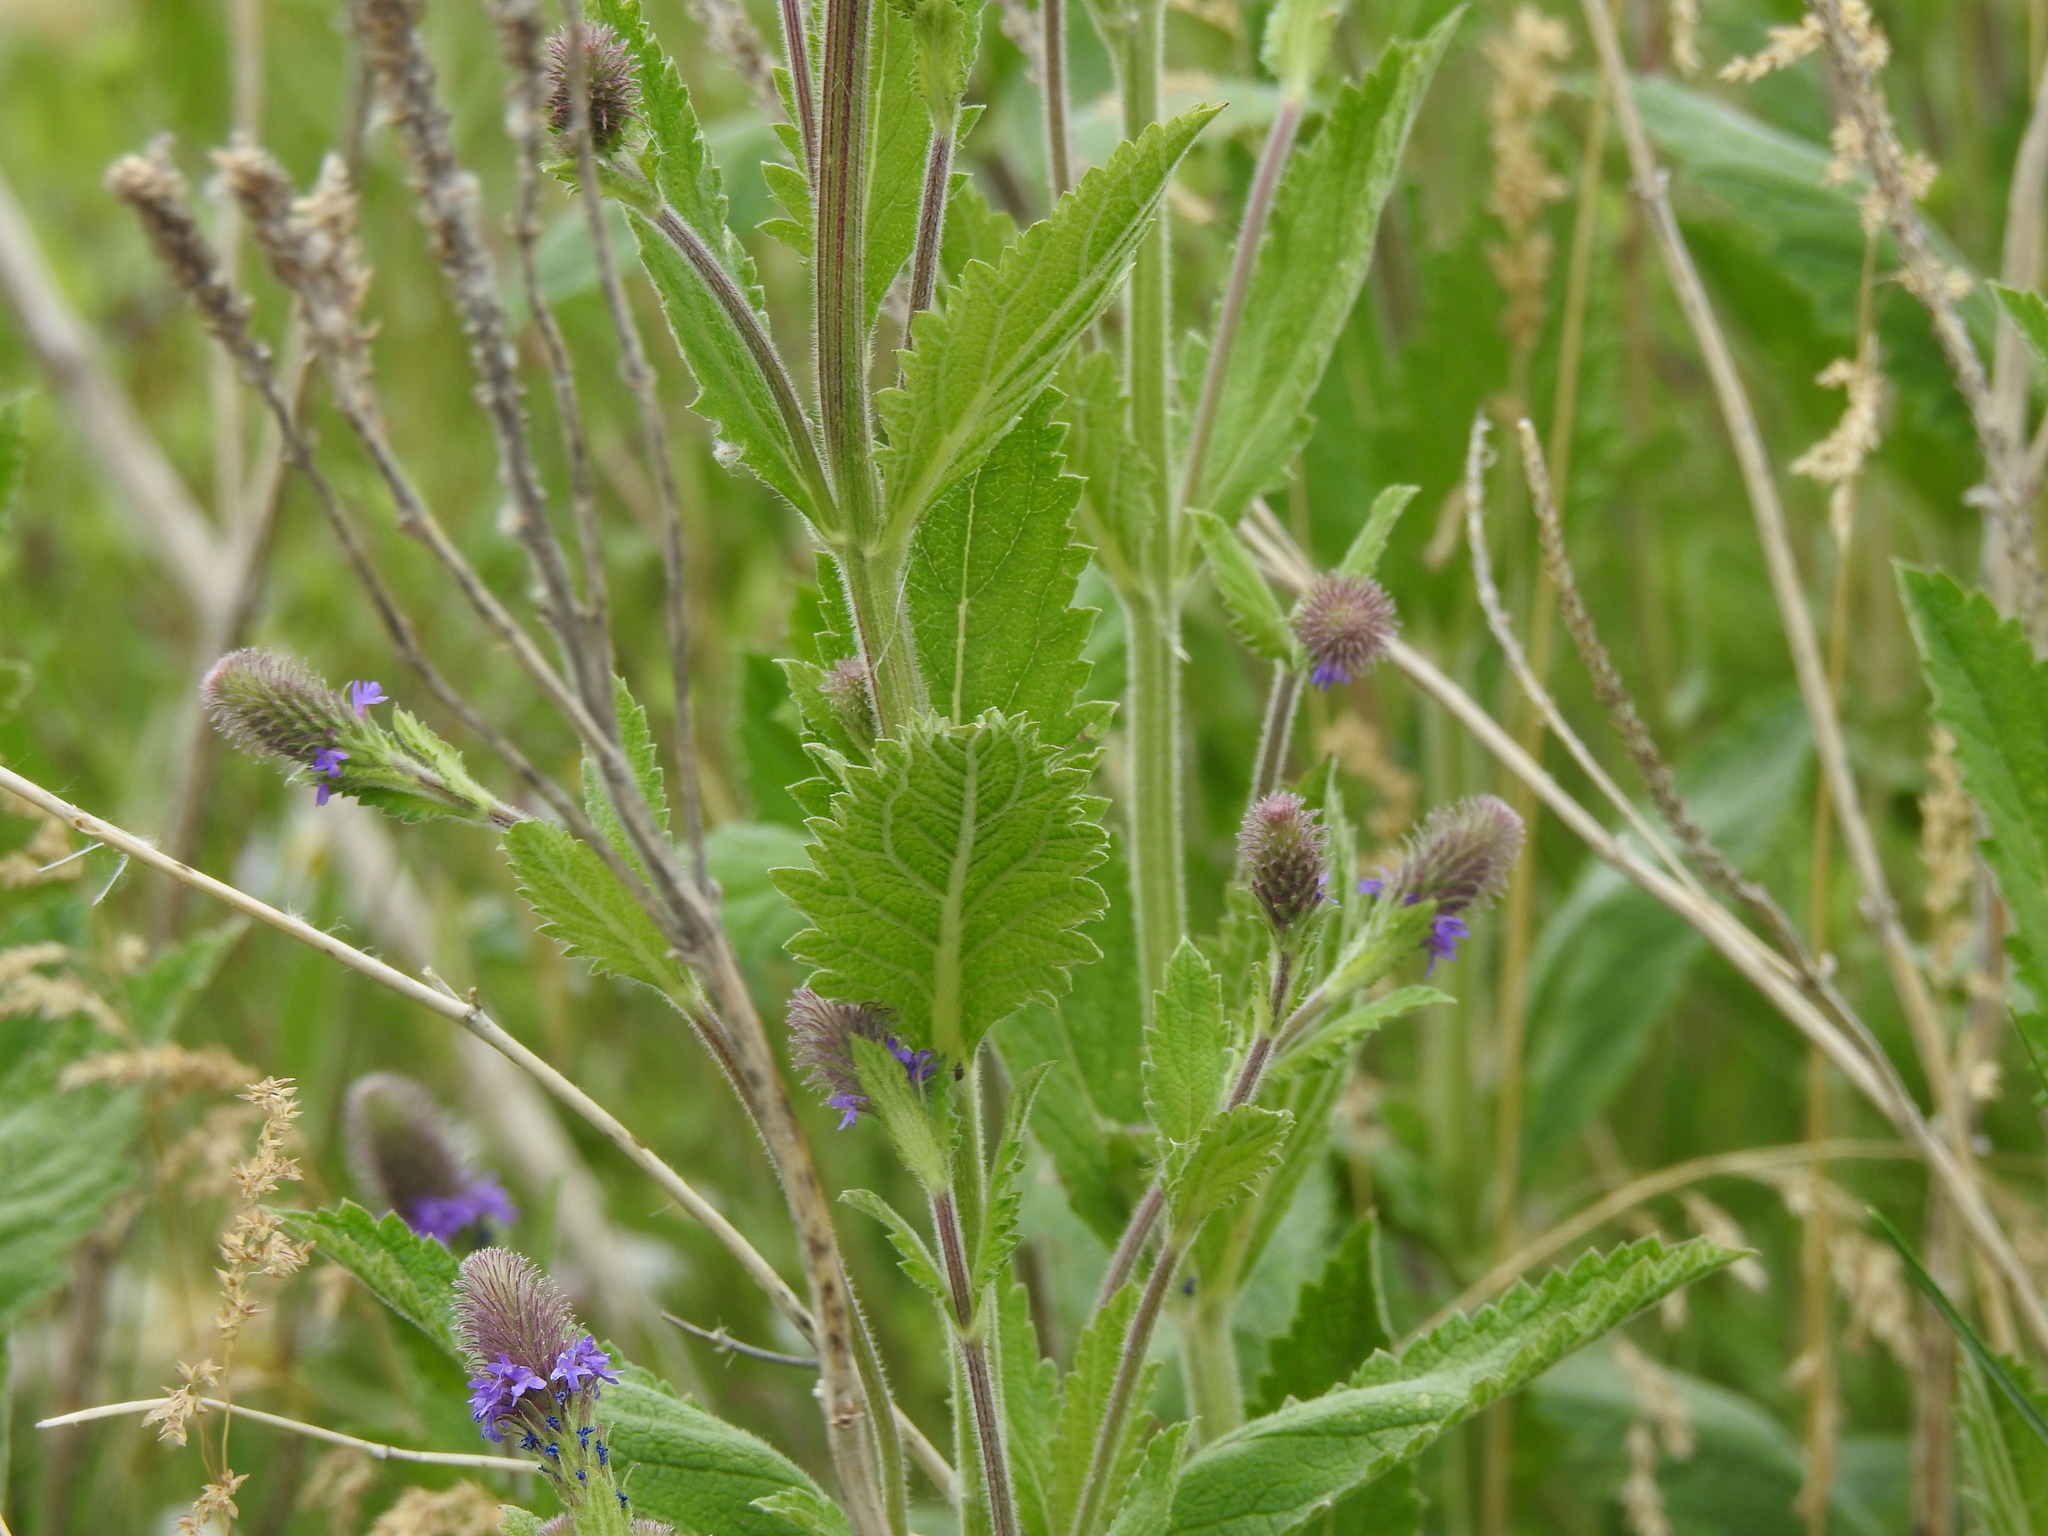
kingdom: Plantae
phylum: Tracheophyta
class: Magnoliopsida
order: Lamiales
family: Verbenaceae
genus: Verbena
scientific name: Verbena macdougalii
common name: New mexico vervain
